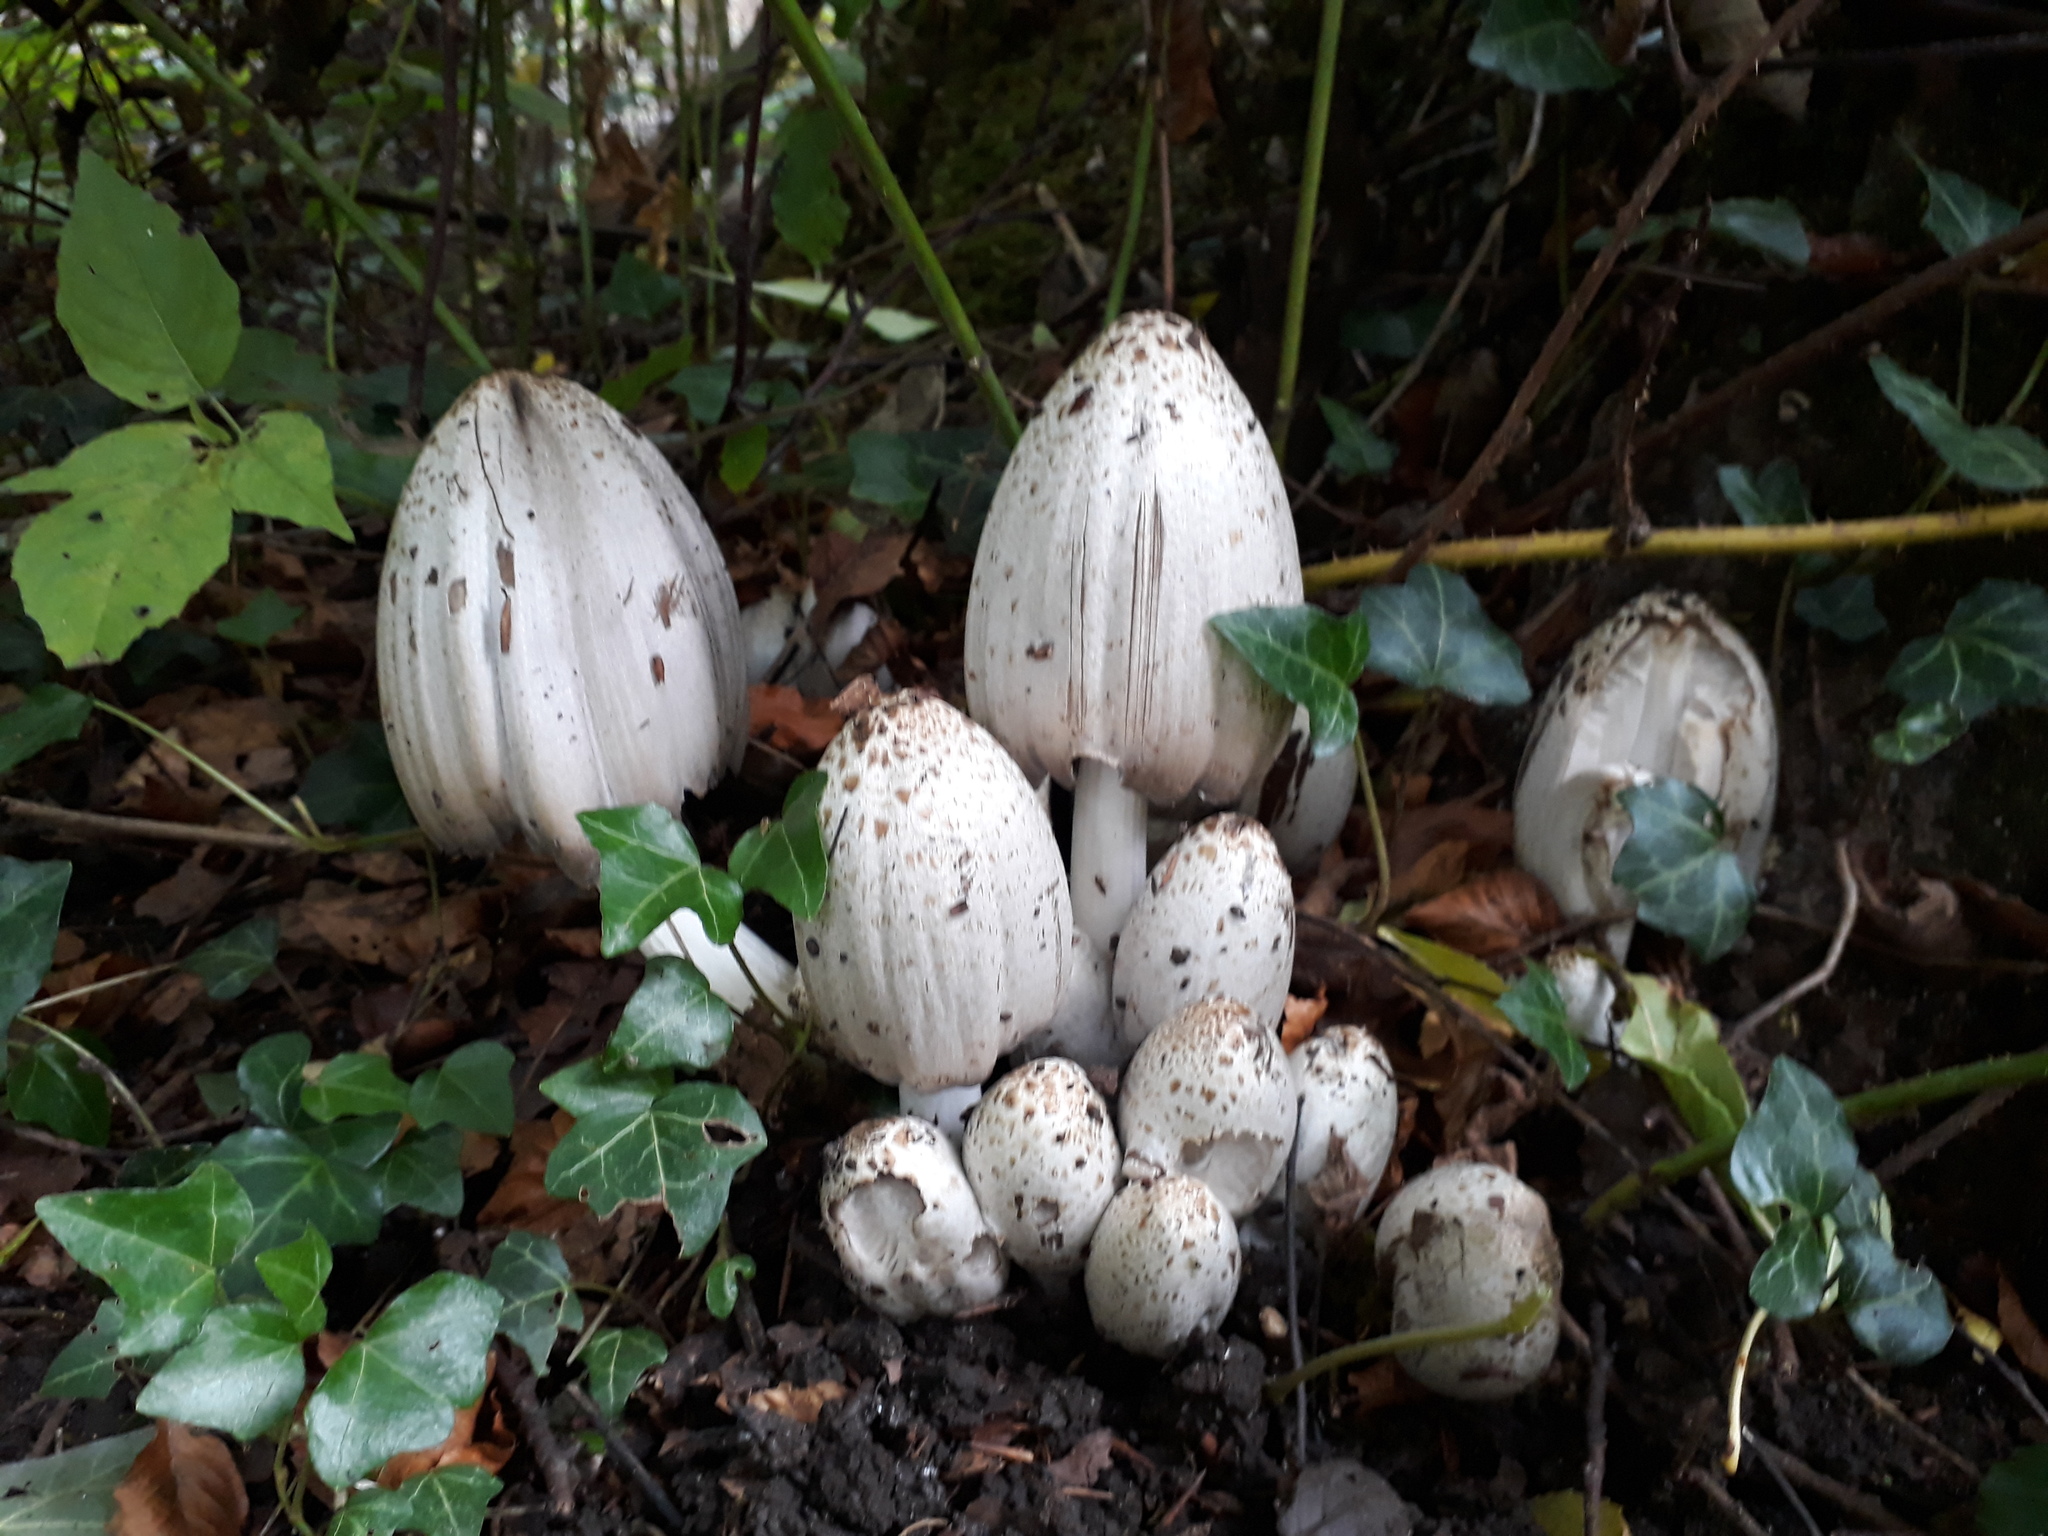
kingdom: Fungi
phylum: Basidiomycota
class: Agaricomycetes
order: Agaricales
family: Psathyrellaceae
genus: Coprinopsis
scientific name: Coprinopsis atramentaria
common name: Common ink-cap
